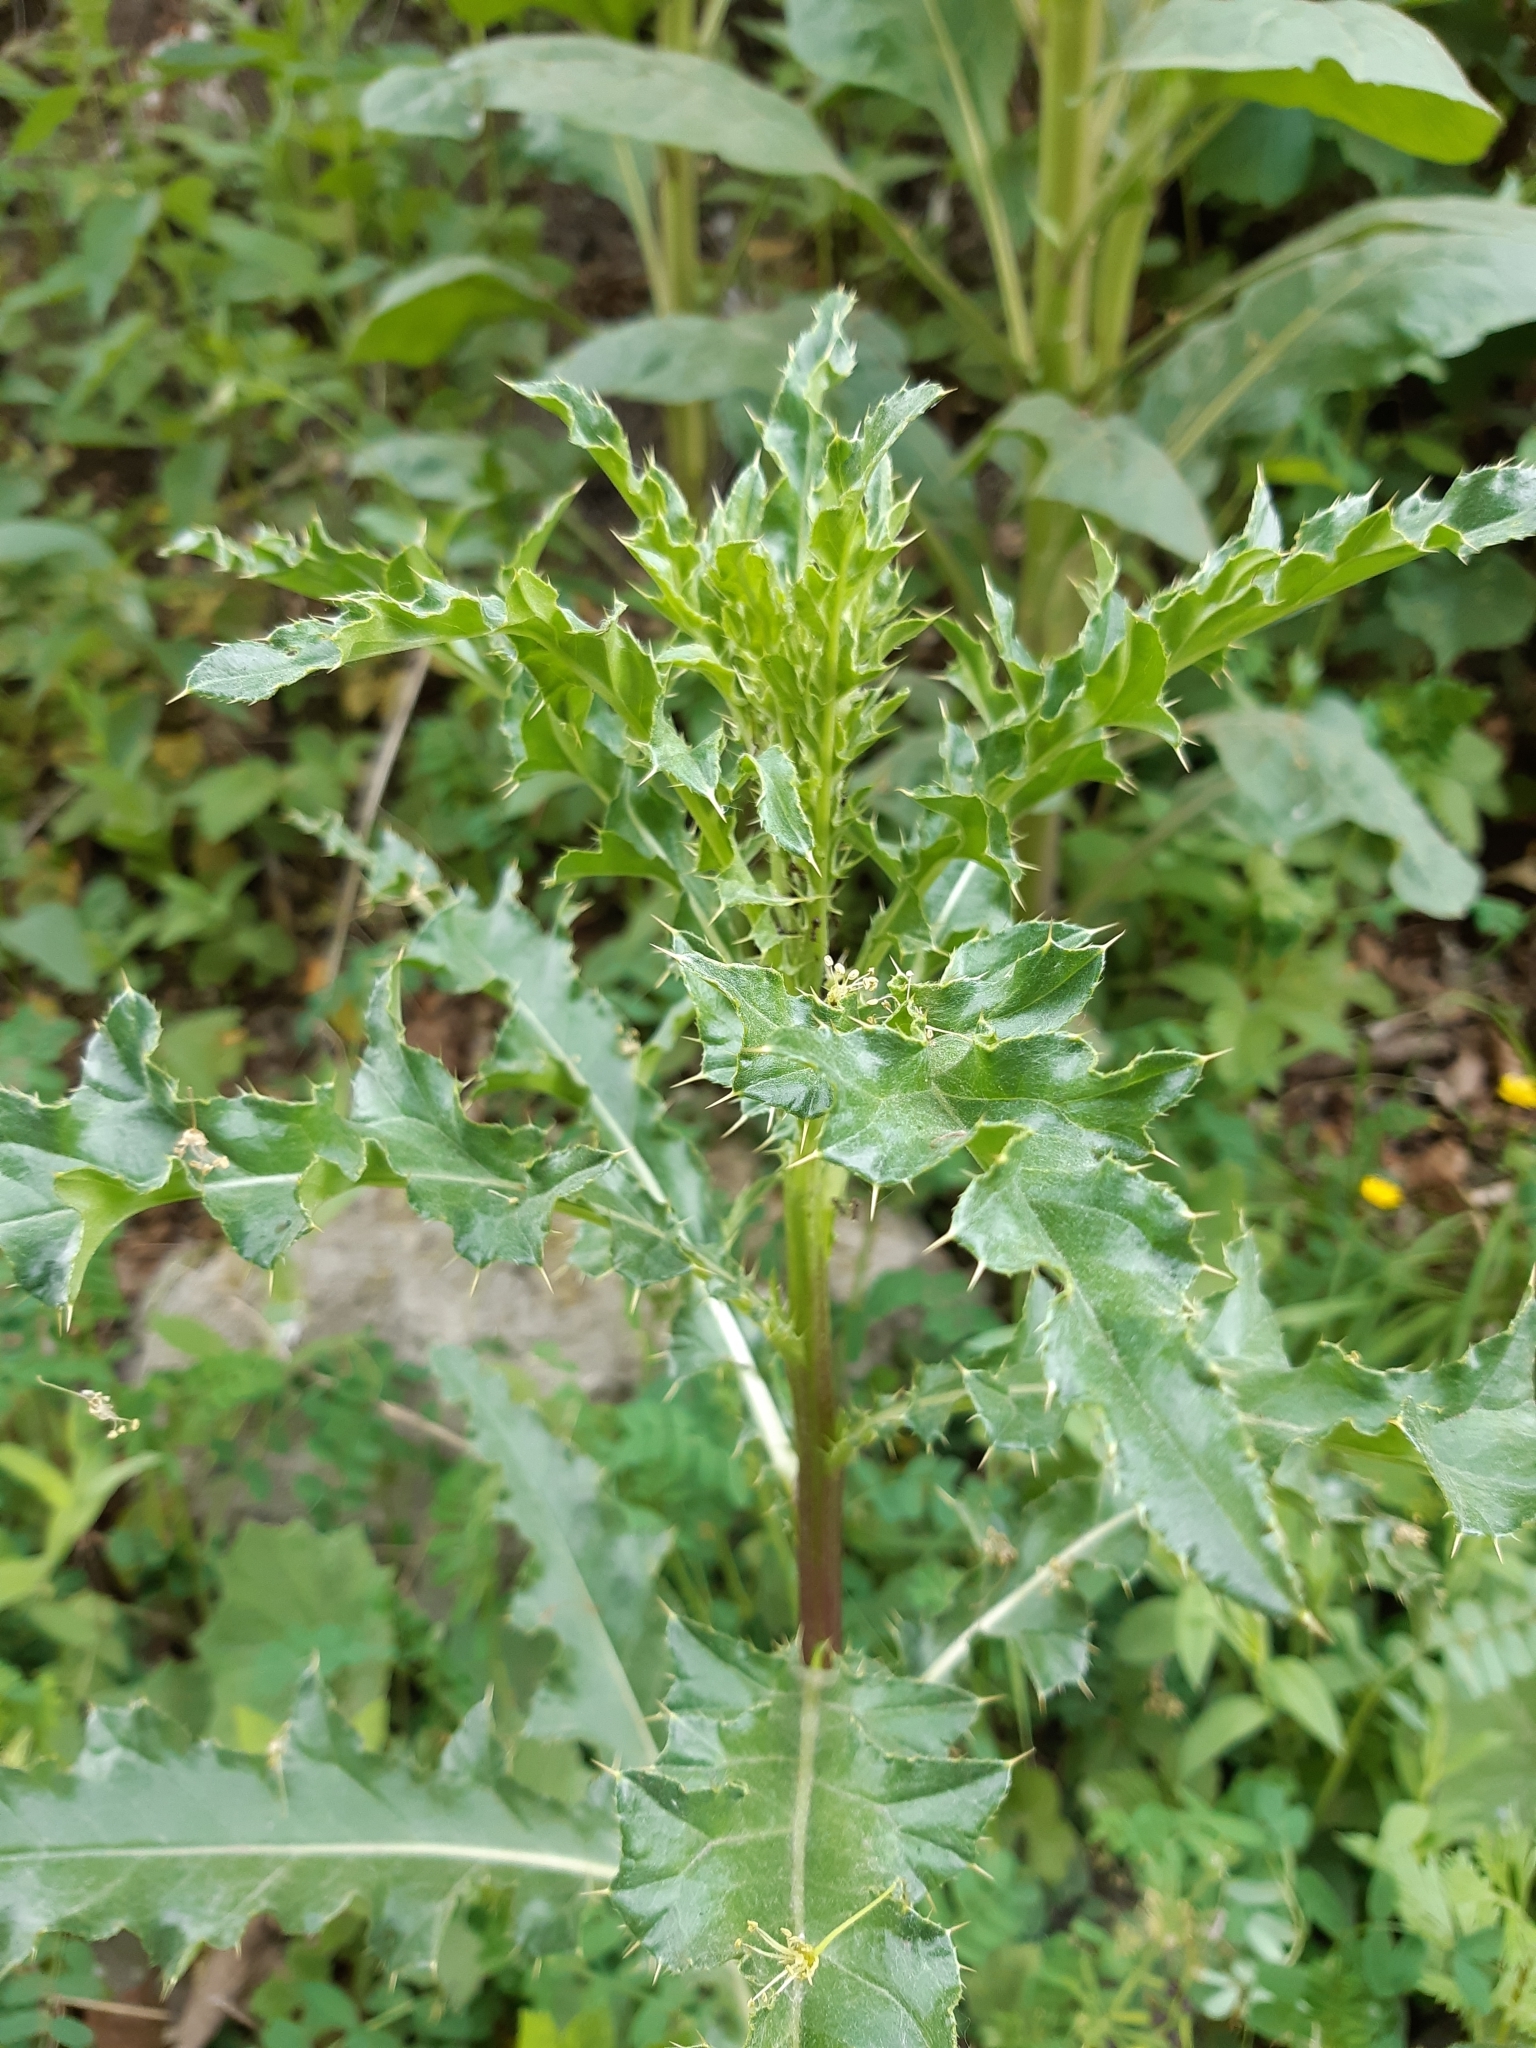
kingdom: Plantae
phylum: Tracheophyta
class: Magnoliopsida
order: Asterales
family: Asteraceae
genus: Cirsium
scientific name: Cirsium arvense
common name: Creeping thistle
